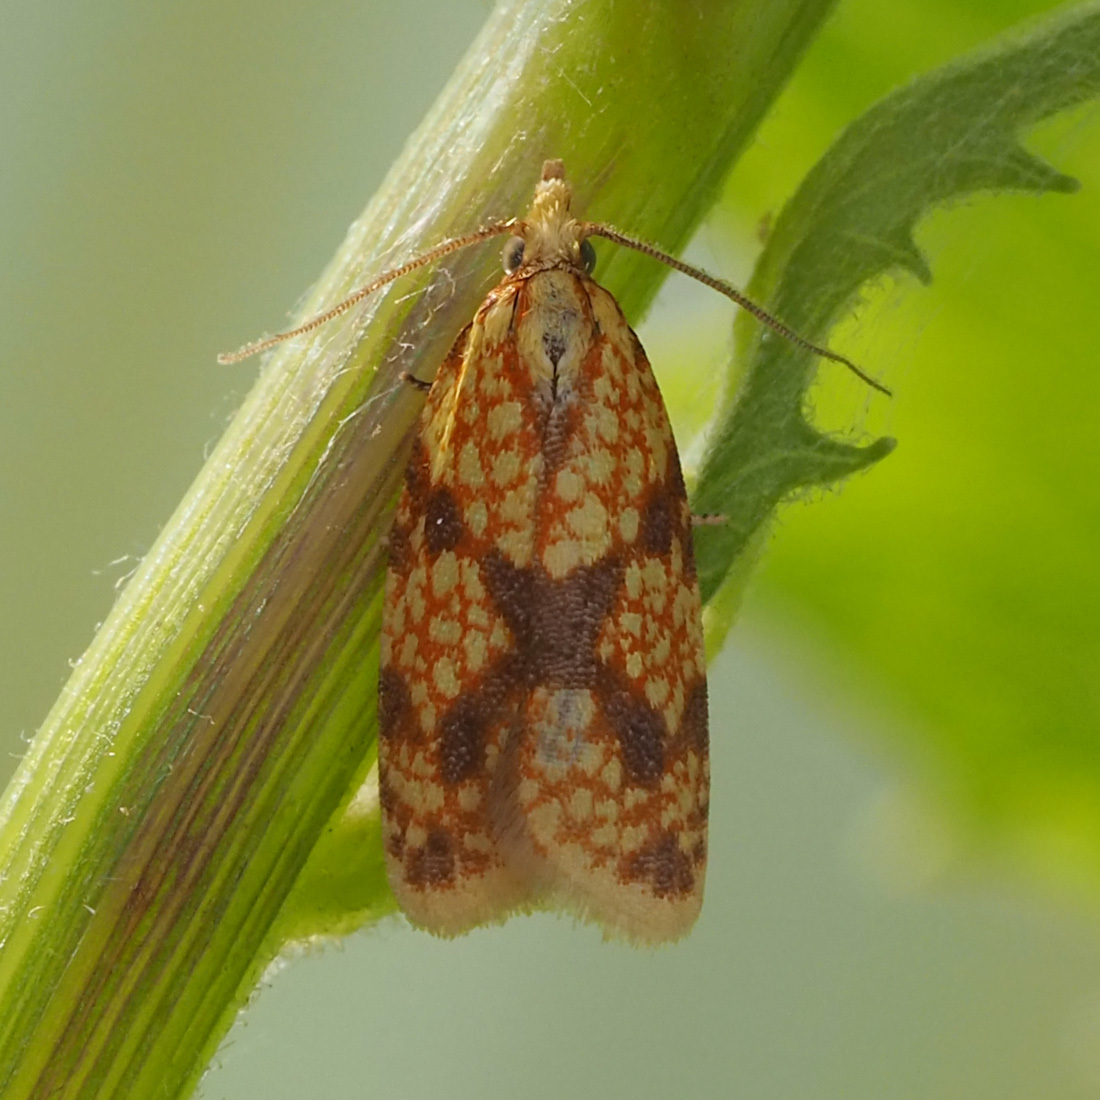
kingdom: Animalia
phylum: Arthropoda
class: Insecta
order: Lepidoptera
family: Tortricidae
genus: Sparganothis
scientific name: Sparganothis sulfureana
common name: Sparganothis fruitworm moth
